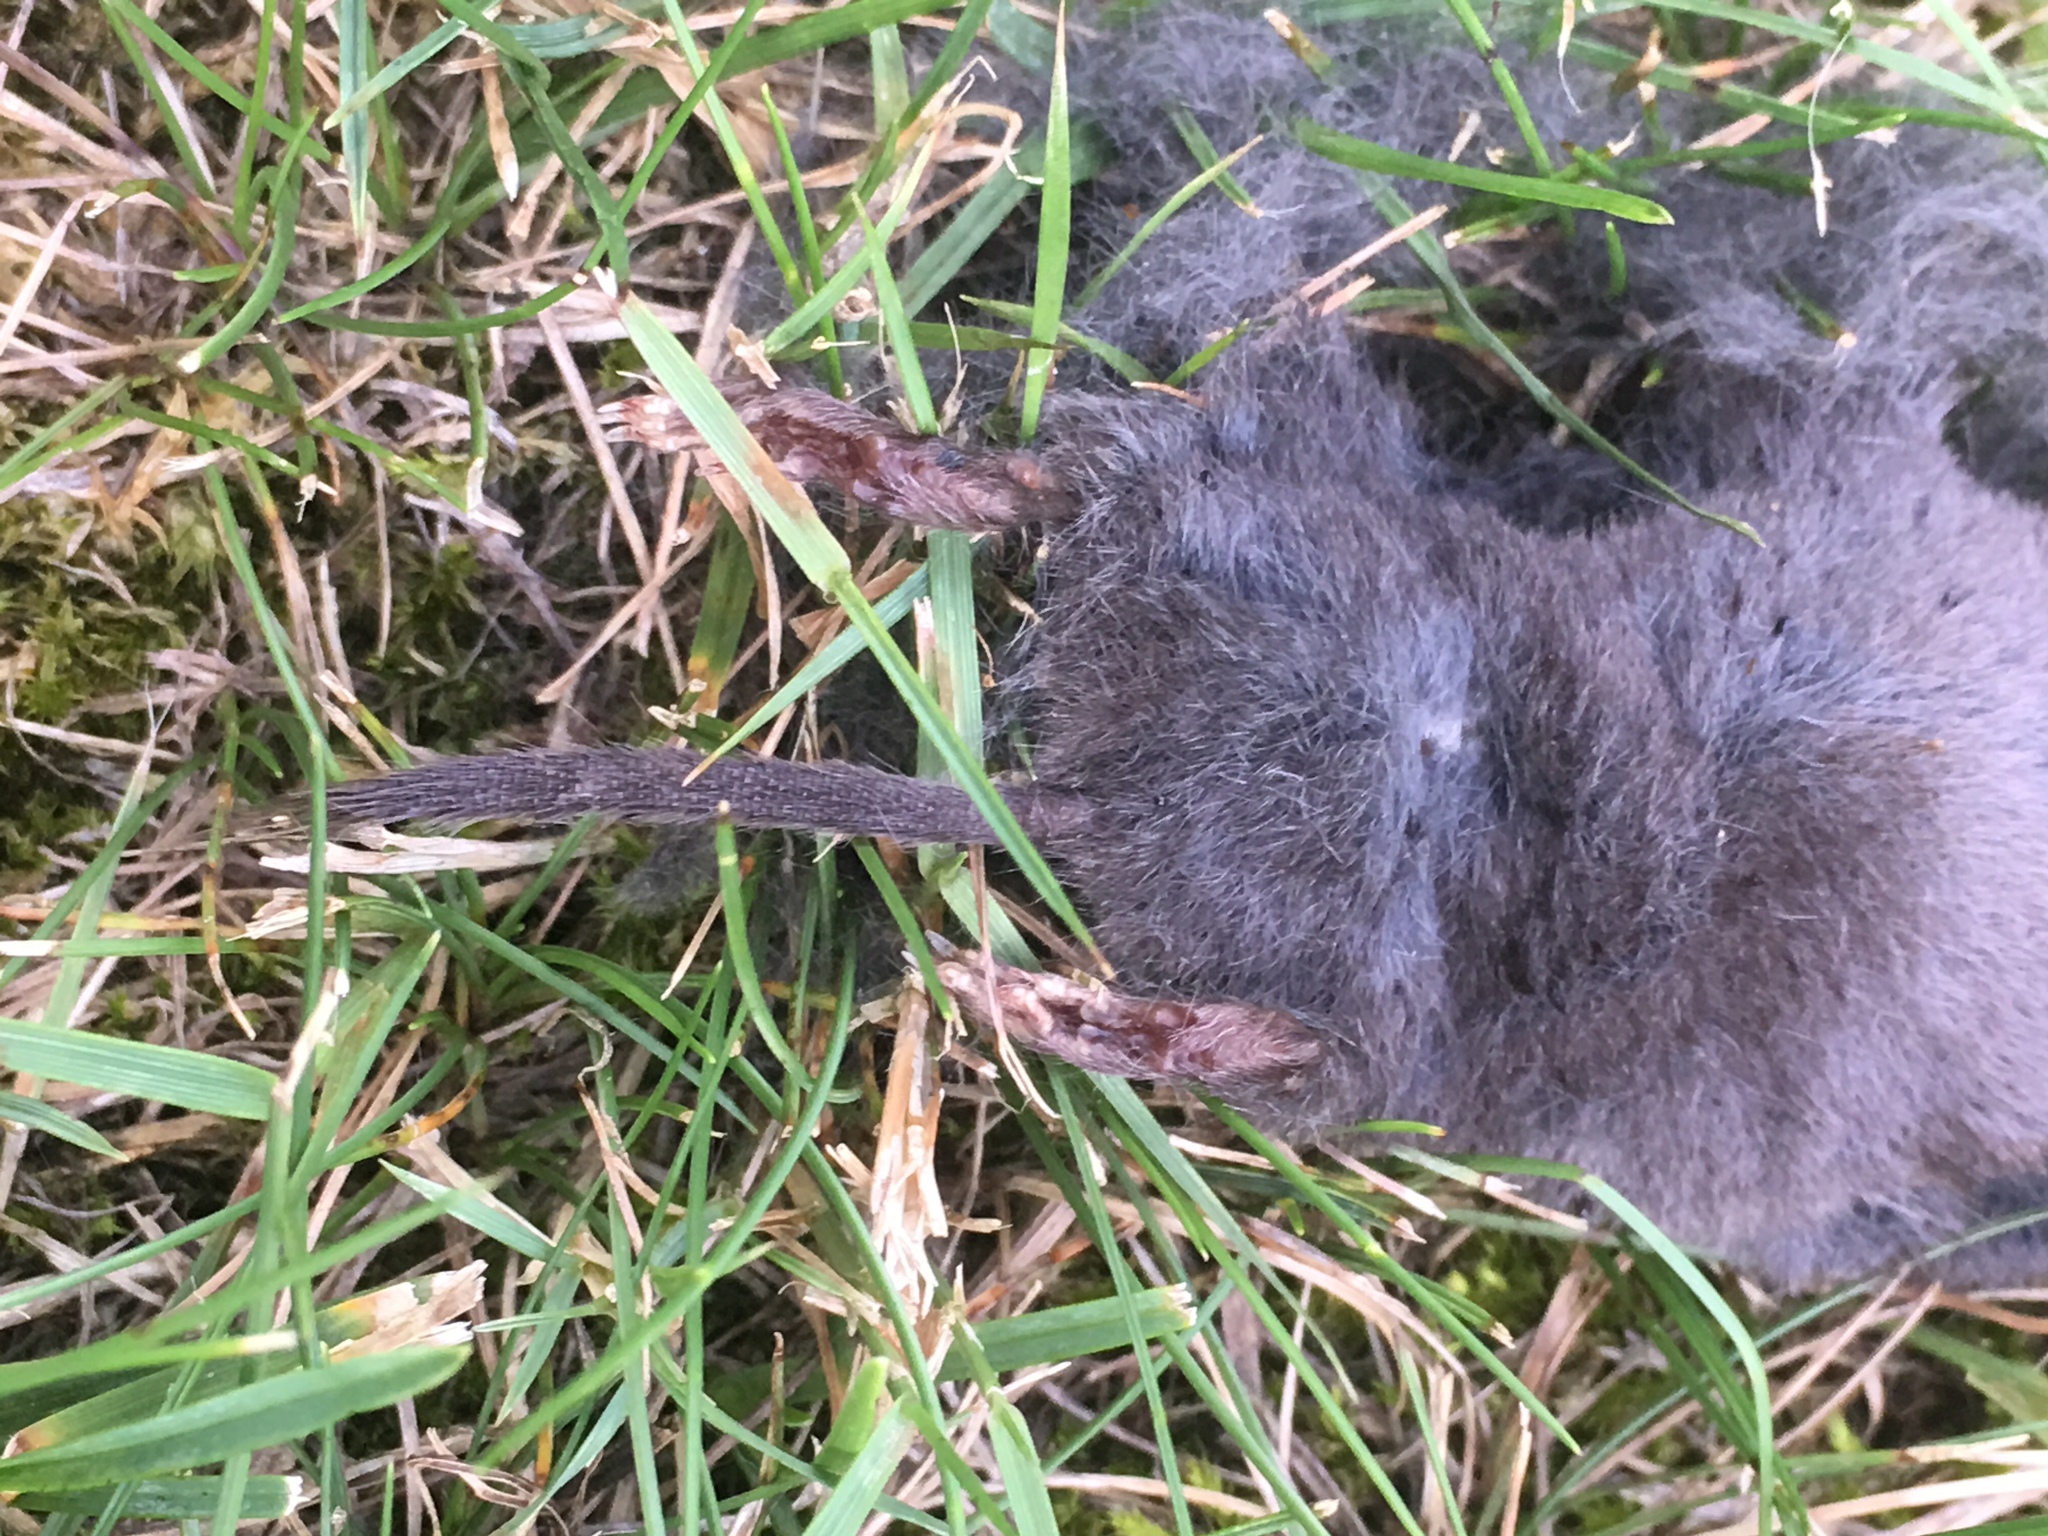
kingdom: Animalia
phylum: Chordata
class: Mammalia
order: Soricomorpha
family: Soricidae
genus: Blarina
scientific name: Blarina brevicauda
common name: Northern short-tailed shrew
